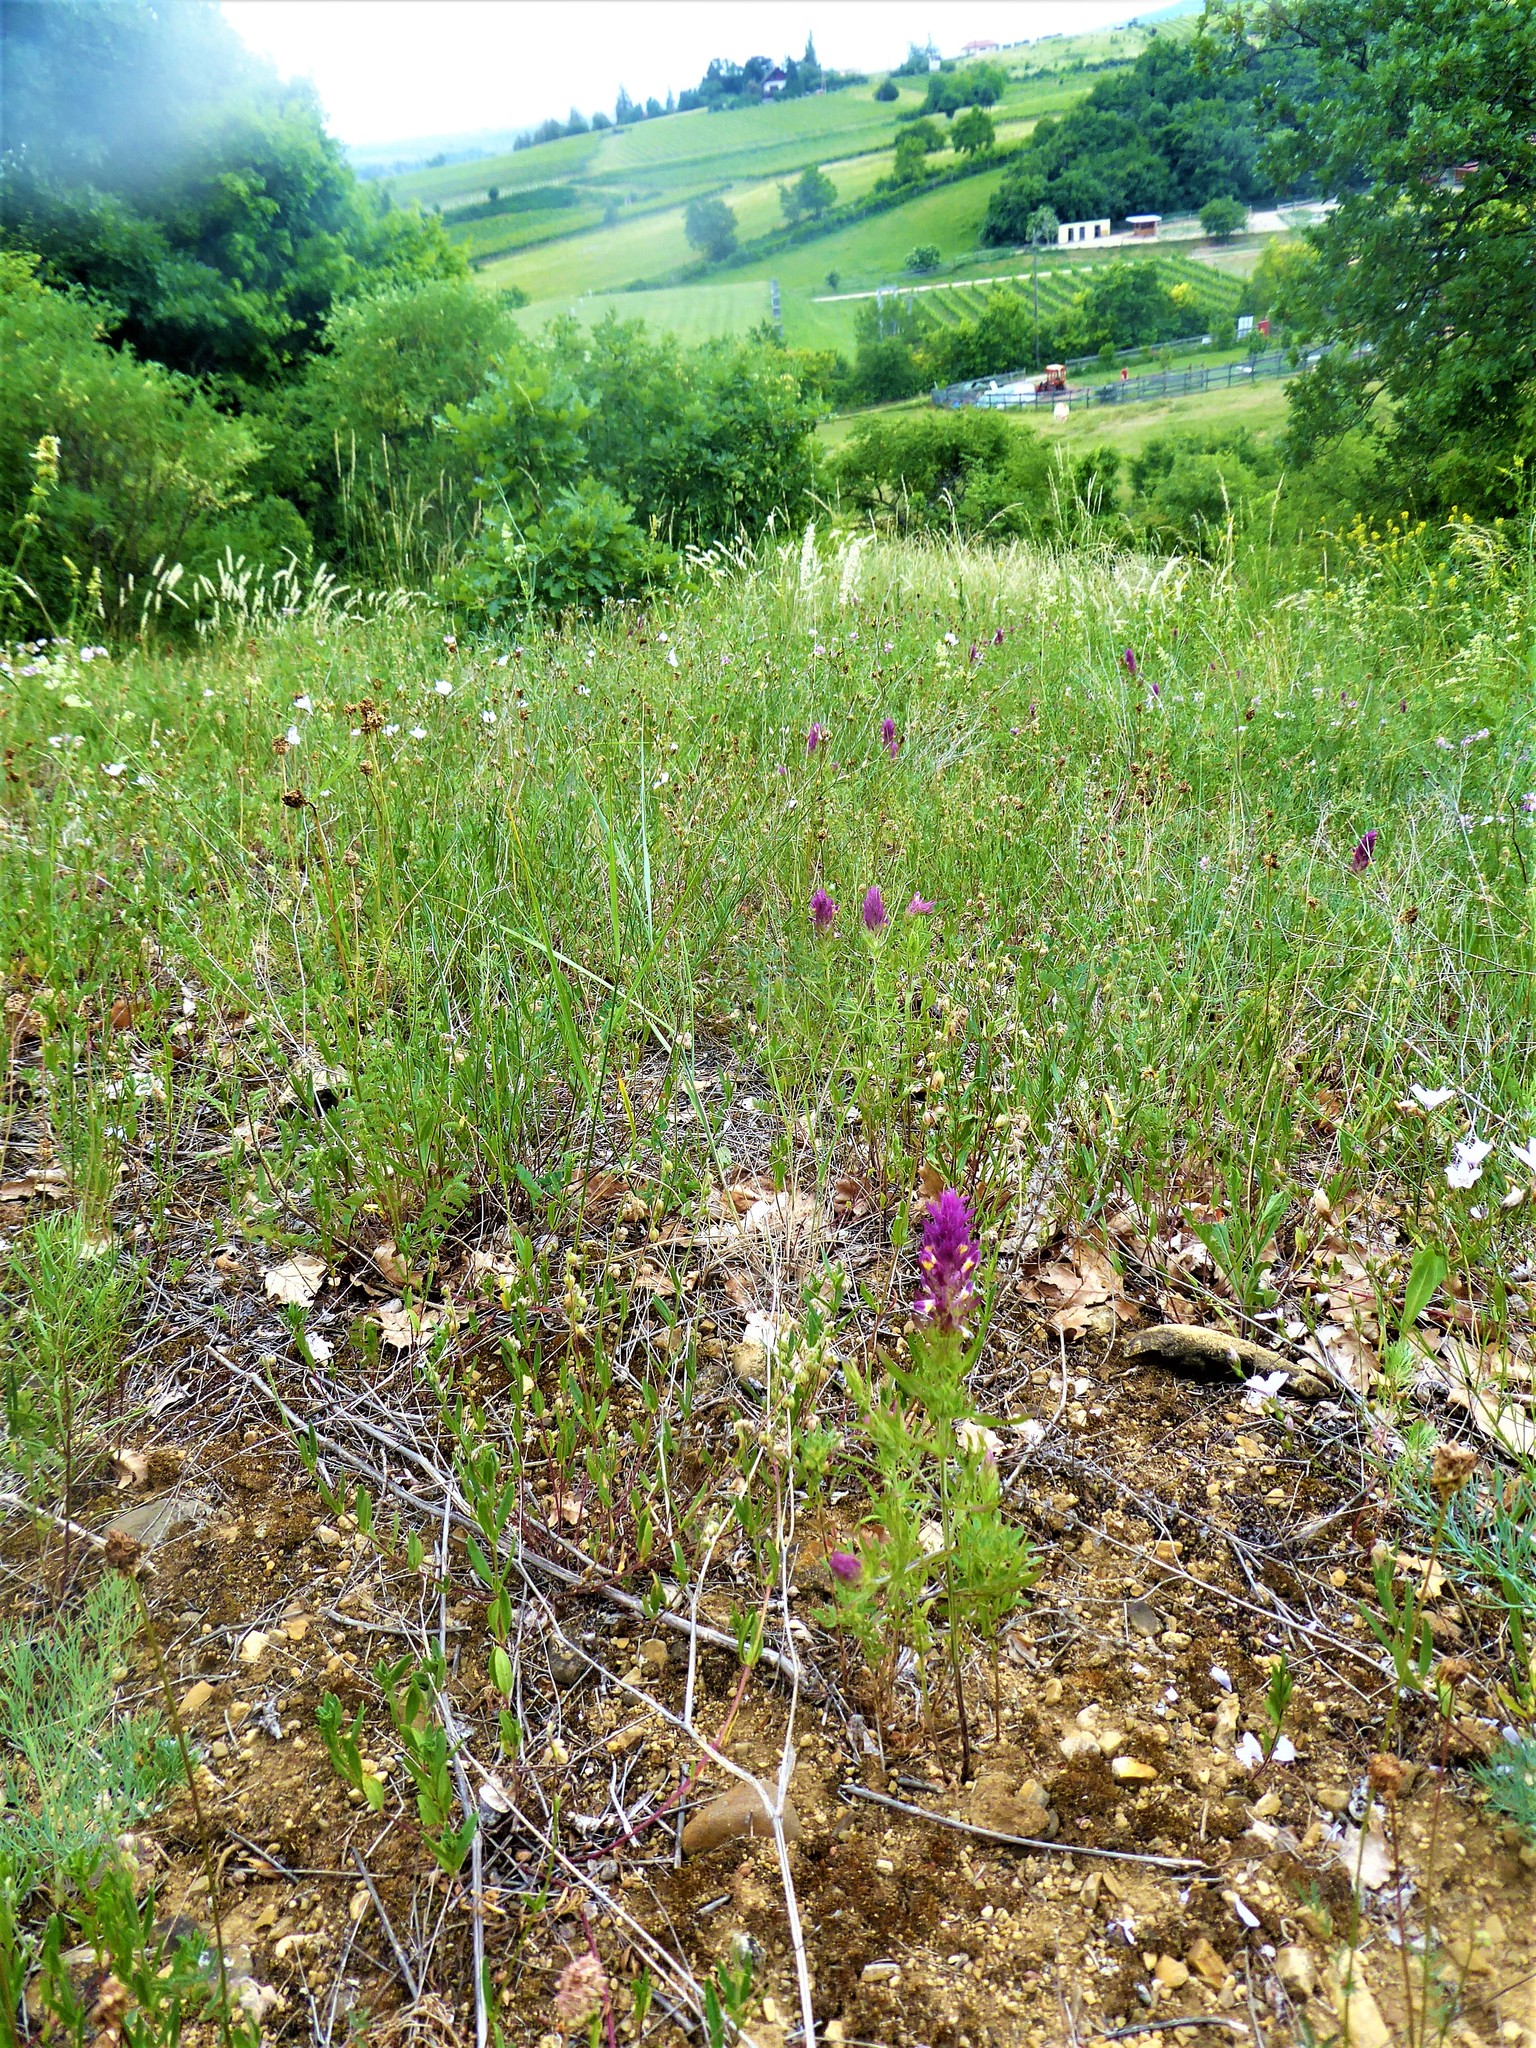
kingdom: Plantae
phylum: Tracheophyta
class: Magnoliopsida
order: Lamiales
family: Orobanchaceae
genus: Melampyrum
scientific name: Melampyrum arvense
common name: Field cow-wheat
